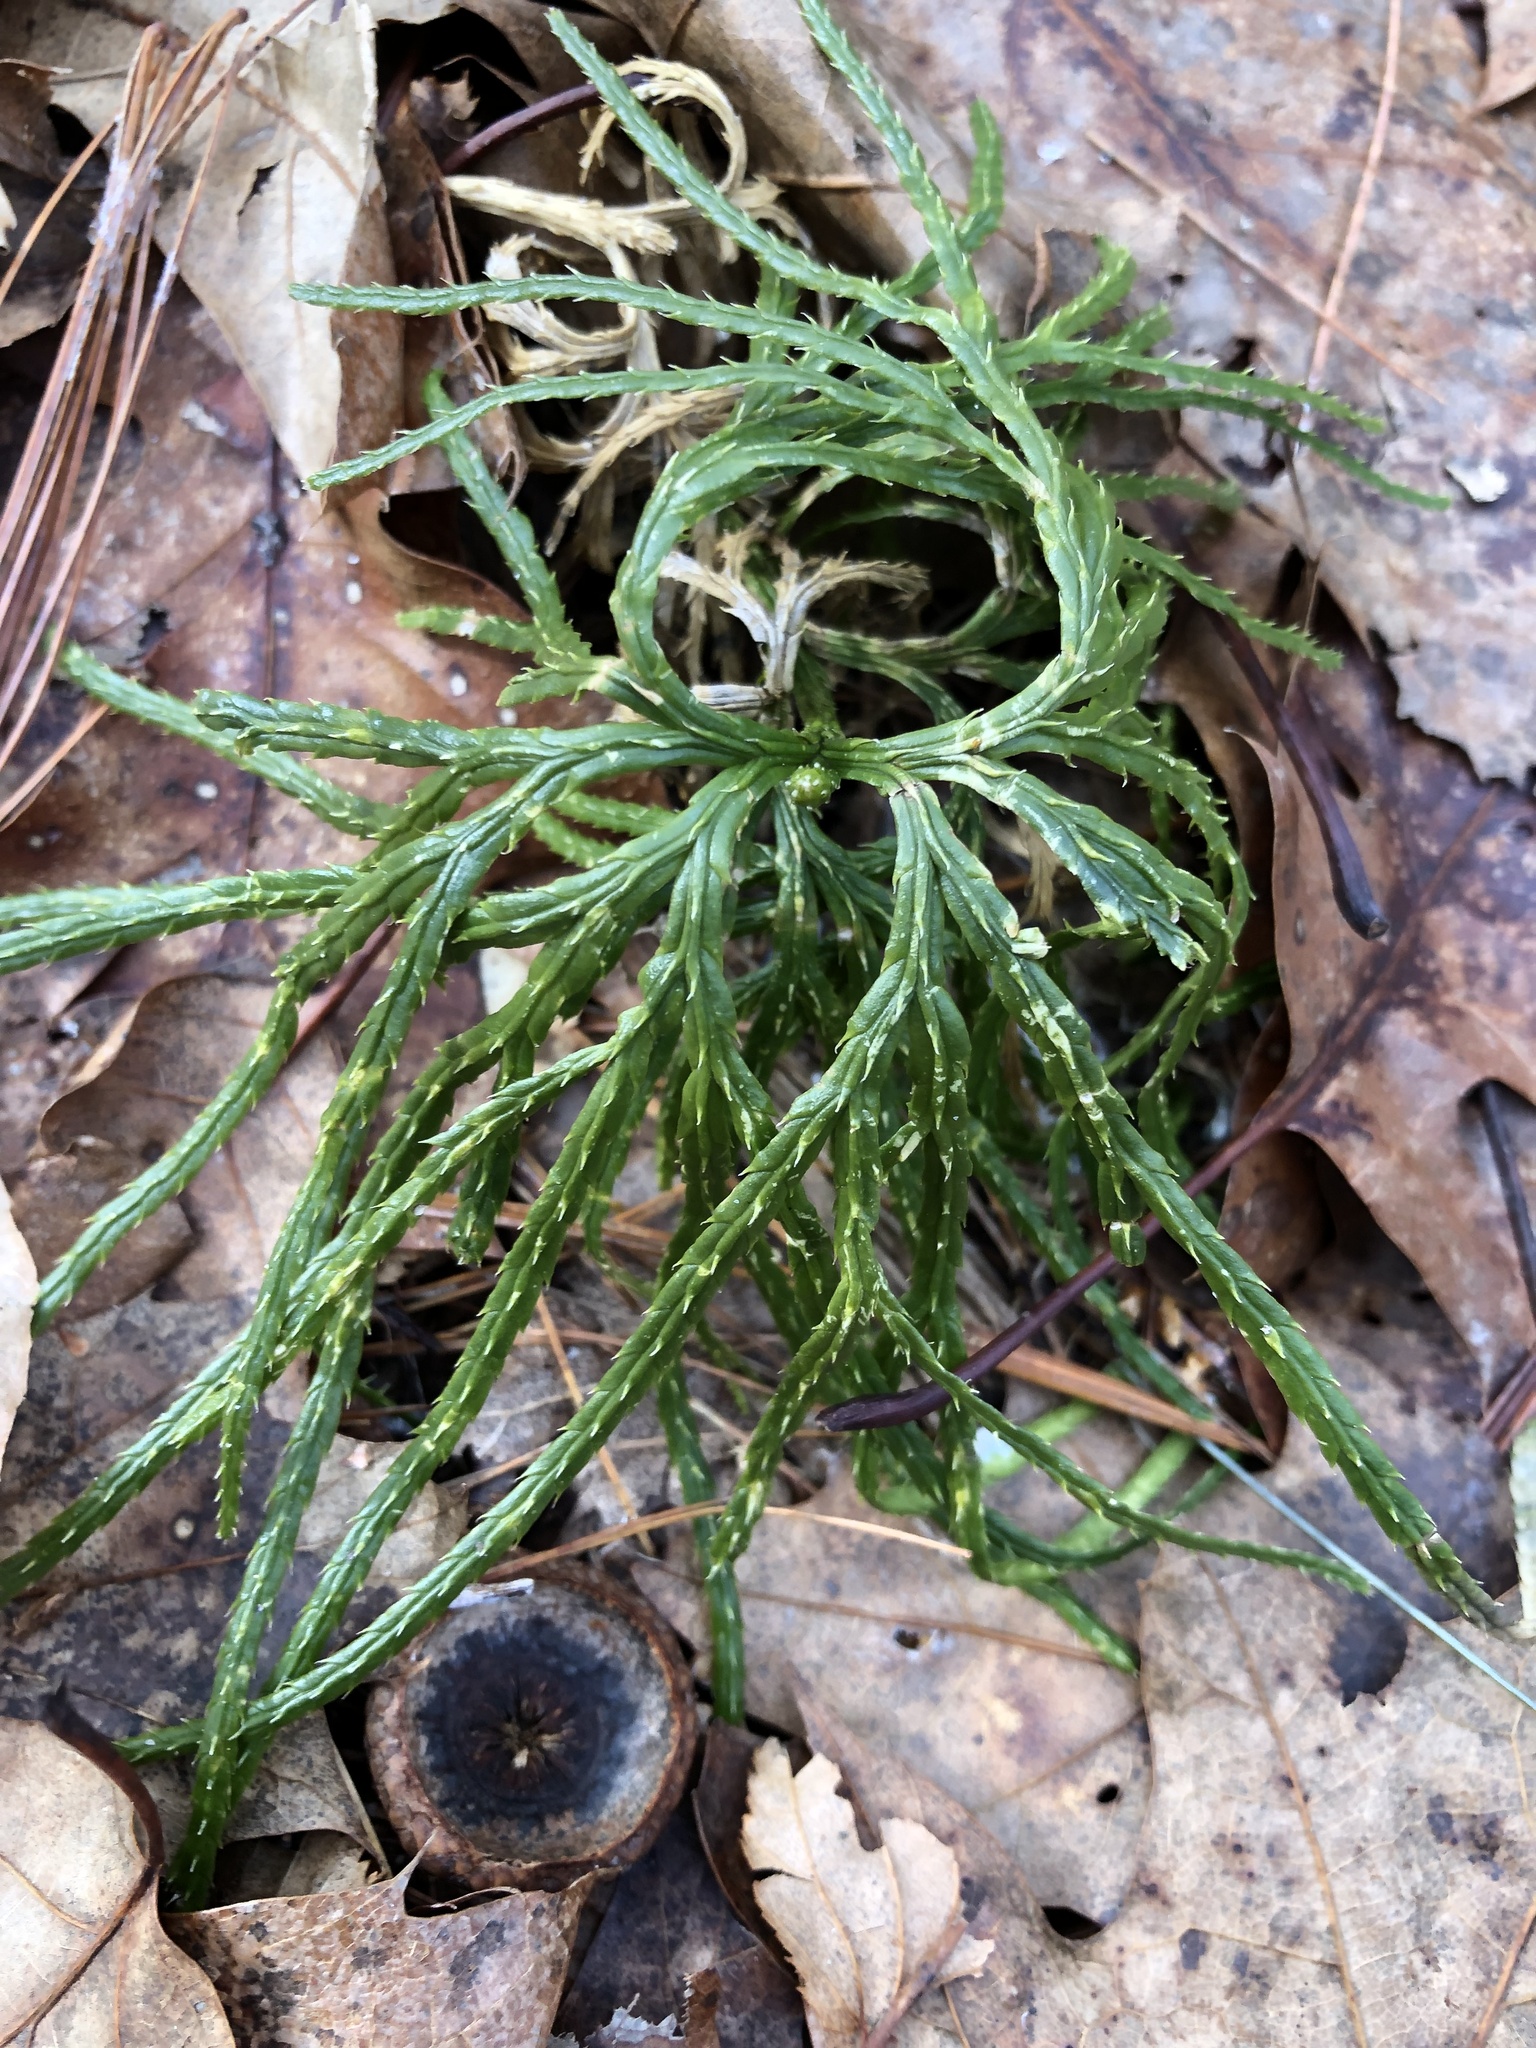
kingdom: Plantae
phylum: Tracheophyta
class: Lycopodiopsida
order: Lycopodiales
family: Lycopodiaceae
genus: Diphasiastrum
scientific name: Diphasiastrum digitatum
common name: Southern running-pine
